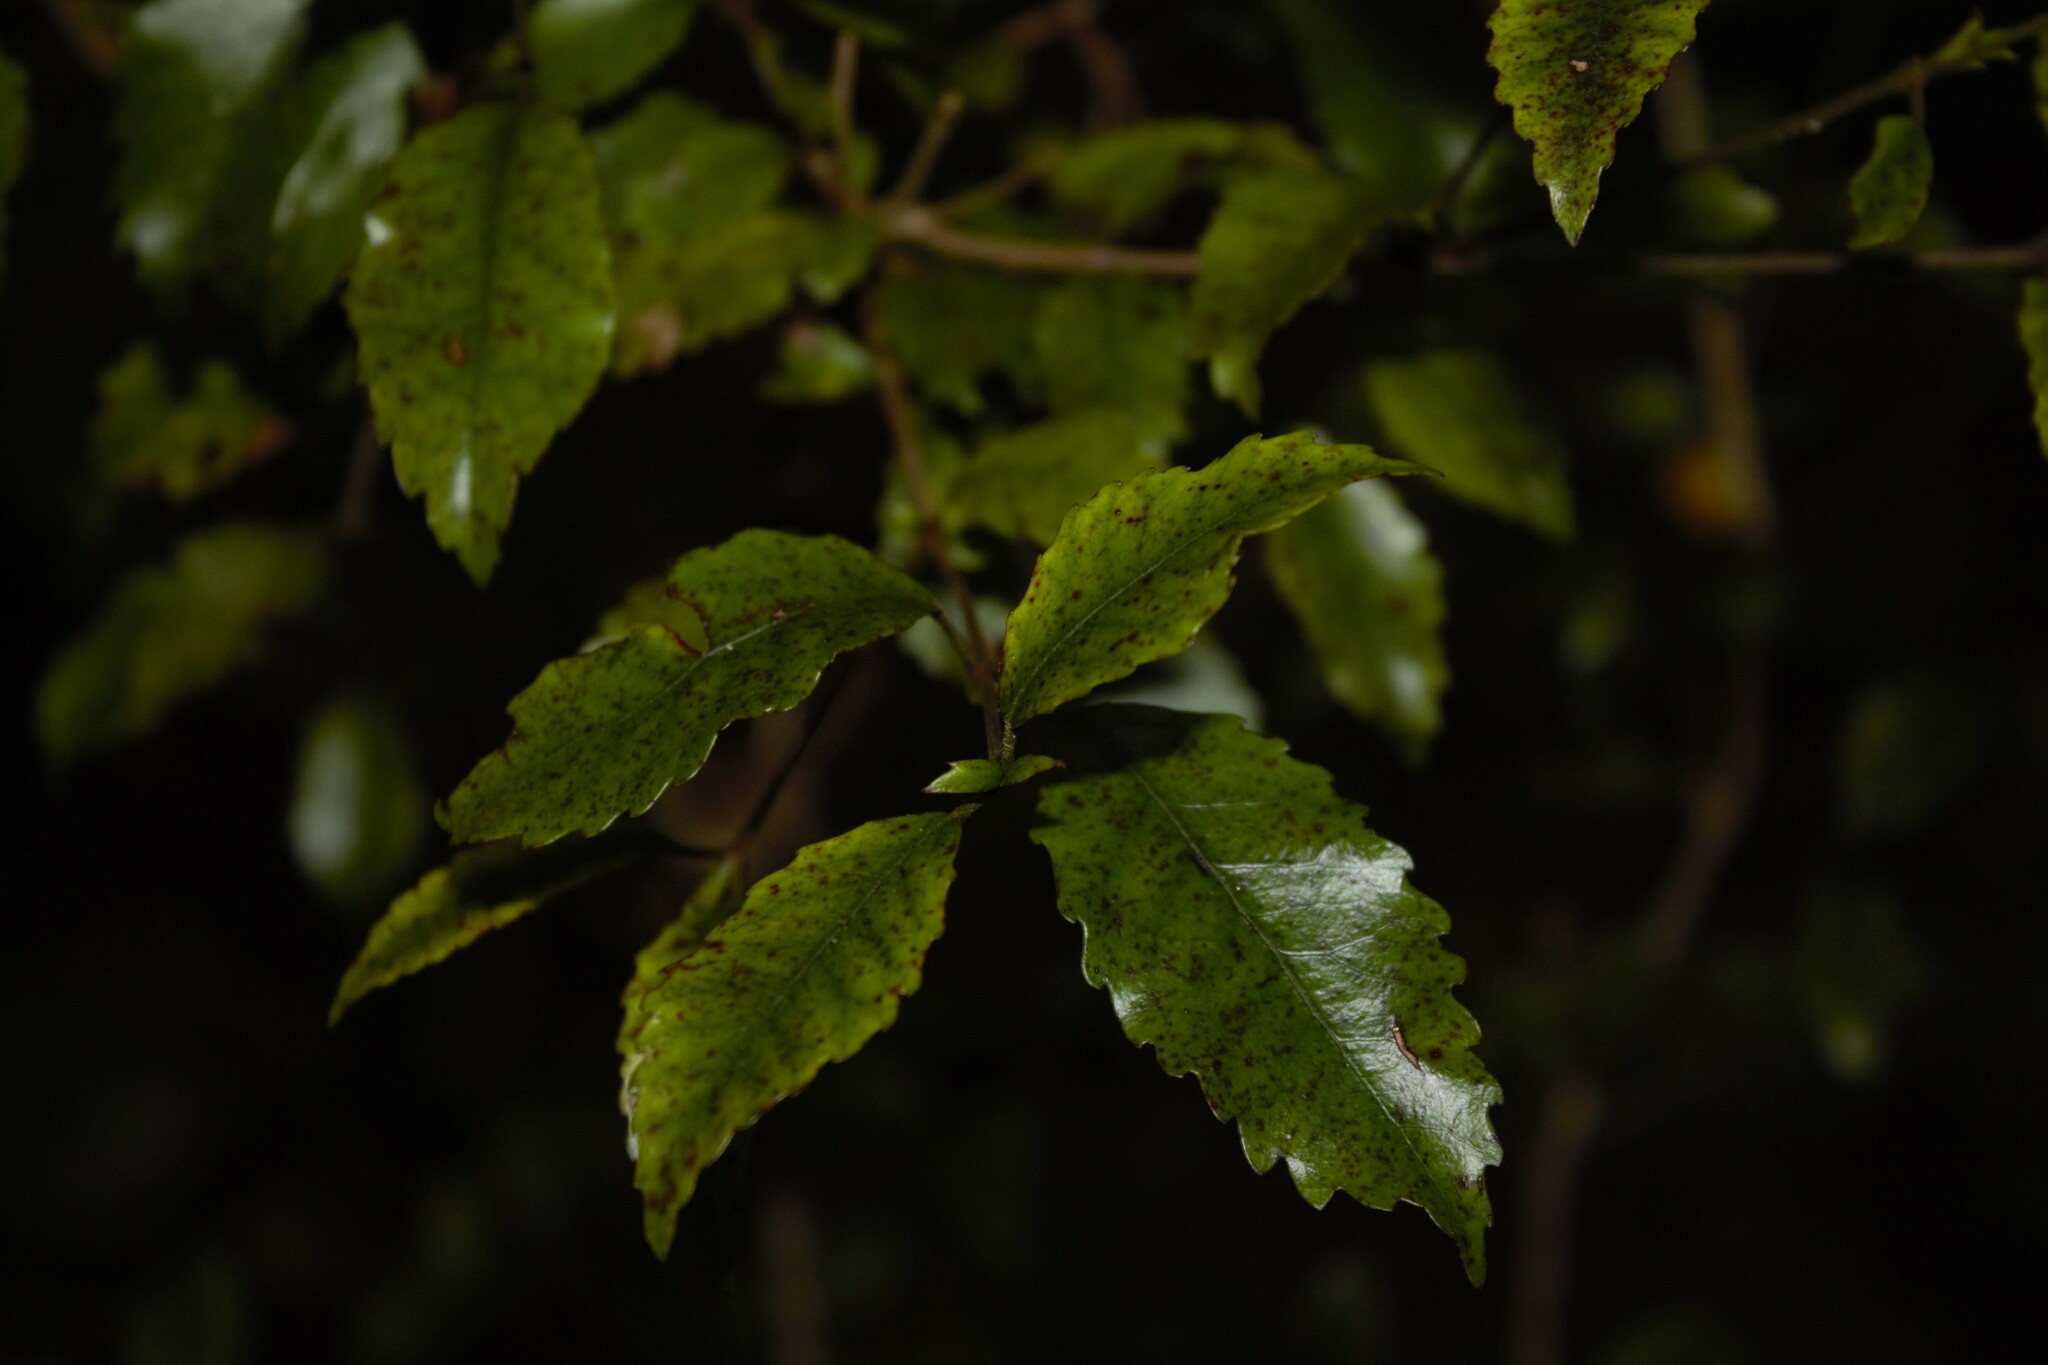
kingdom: Plantae
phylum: Tracheophyta
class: Magnoliopsida
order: Oxalidales
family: Cunoniaceae
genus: Pterophylla
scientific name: Pterophylla racemosa
